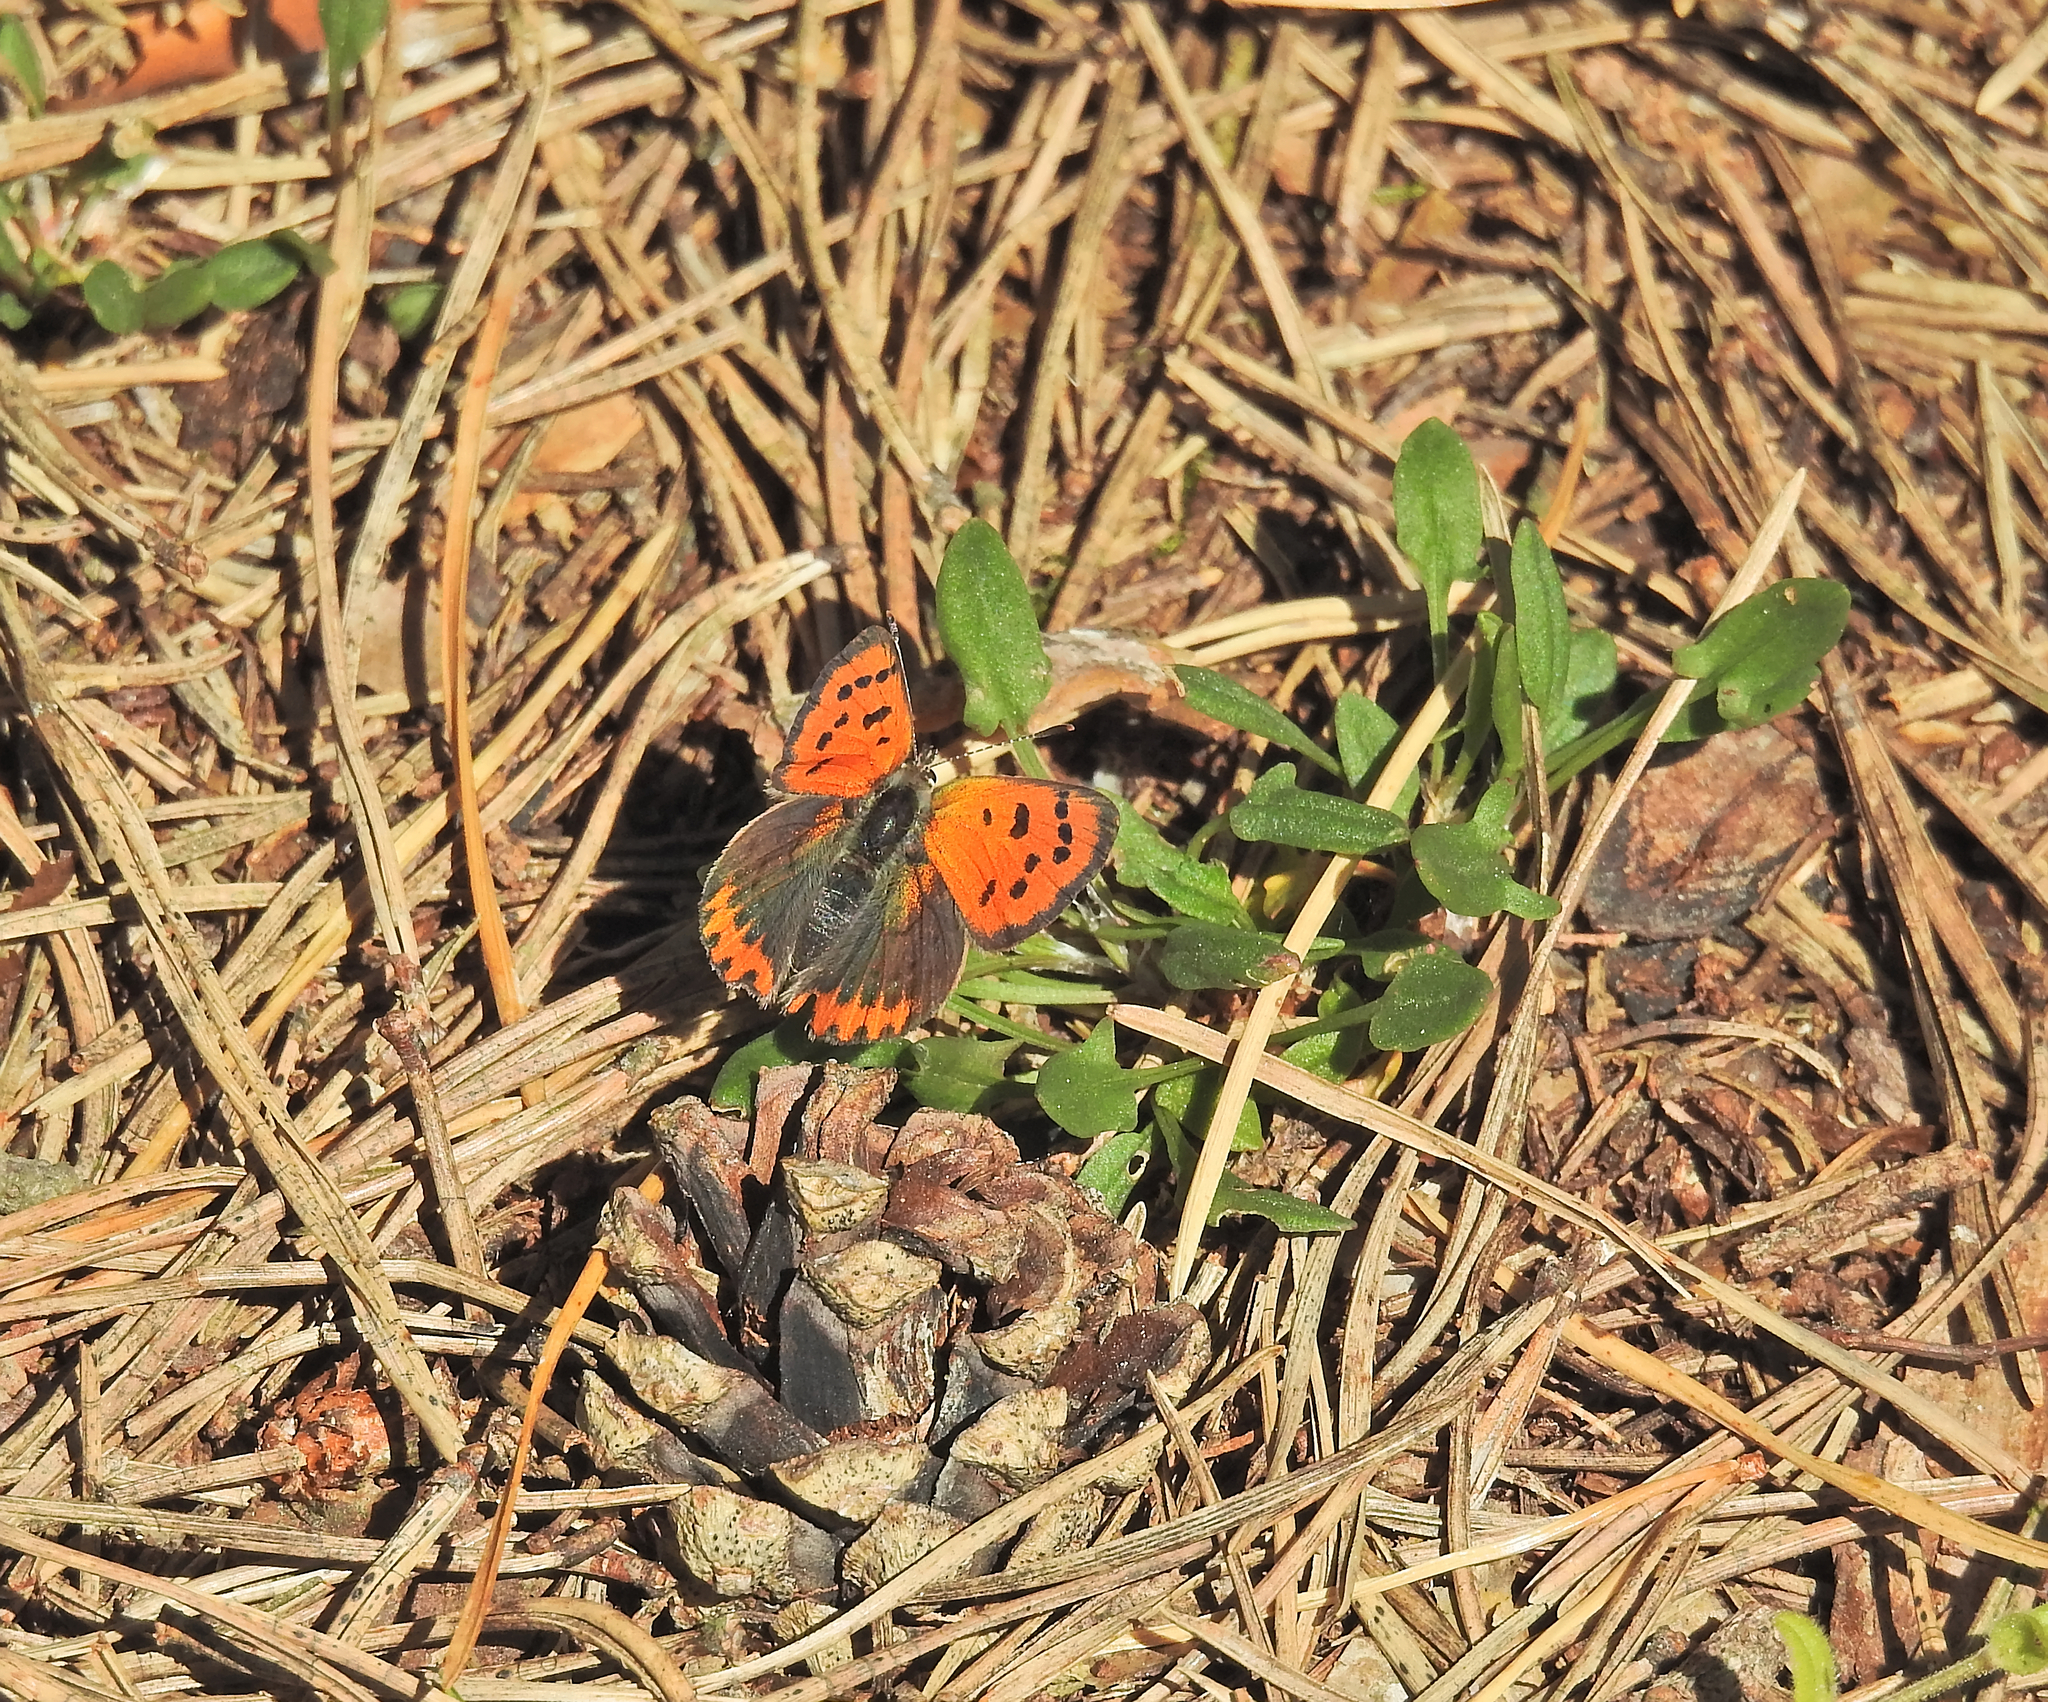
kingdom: Animalia
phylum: Arthropoda
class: Insecta
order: Lepidoptera
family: Lycaenidae
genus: Lycaena
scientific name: Lycaena phlaeas
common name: Small copper
